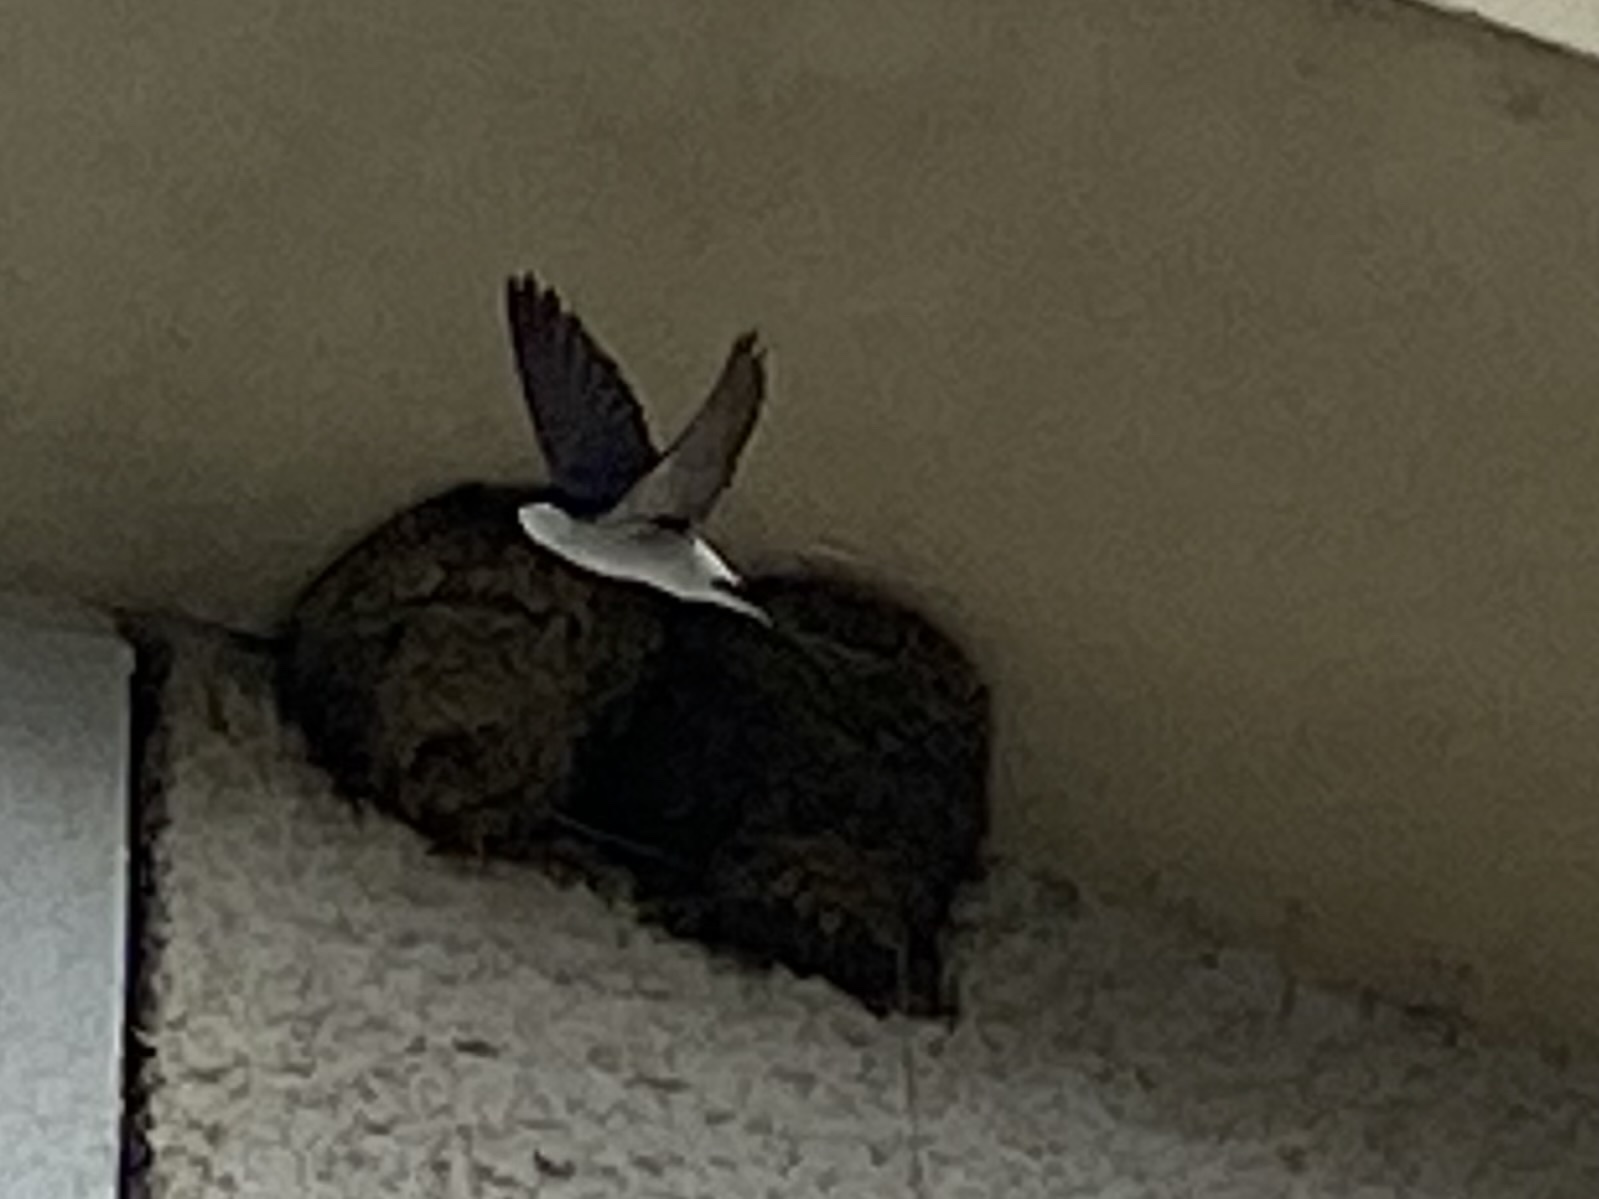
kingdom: Animalia
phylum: Chordata
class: Aves
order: Passeriformes
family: Hirundinidae
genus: Delichon
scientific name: Delichon urbicum
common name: Common house martin
